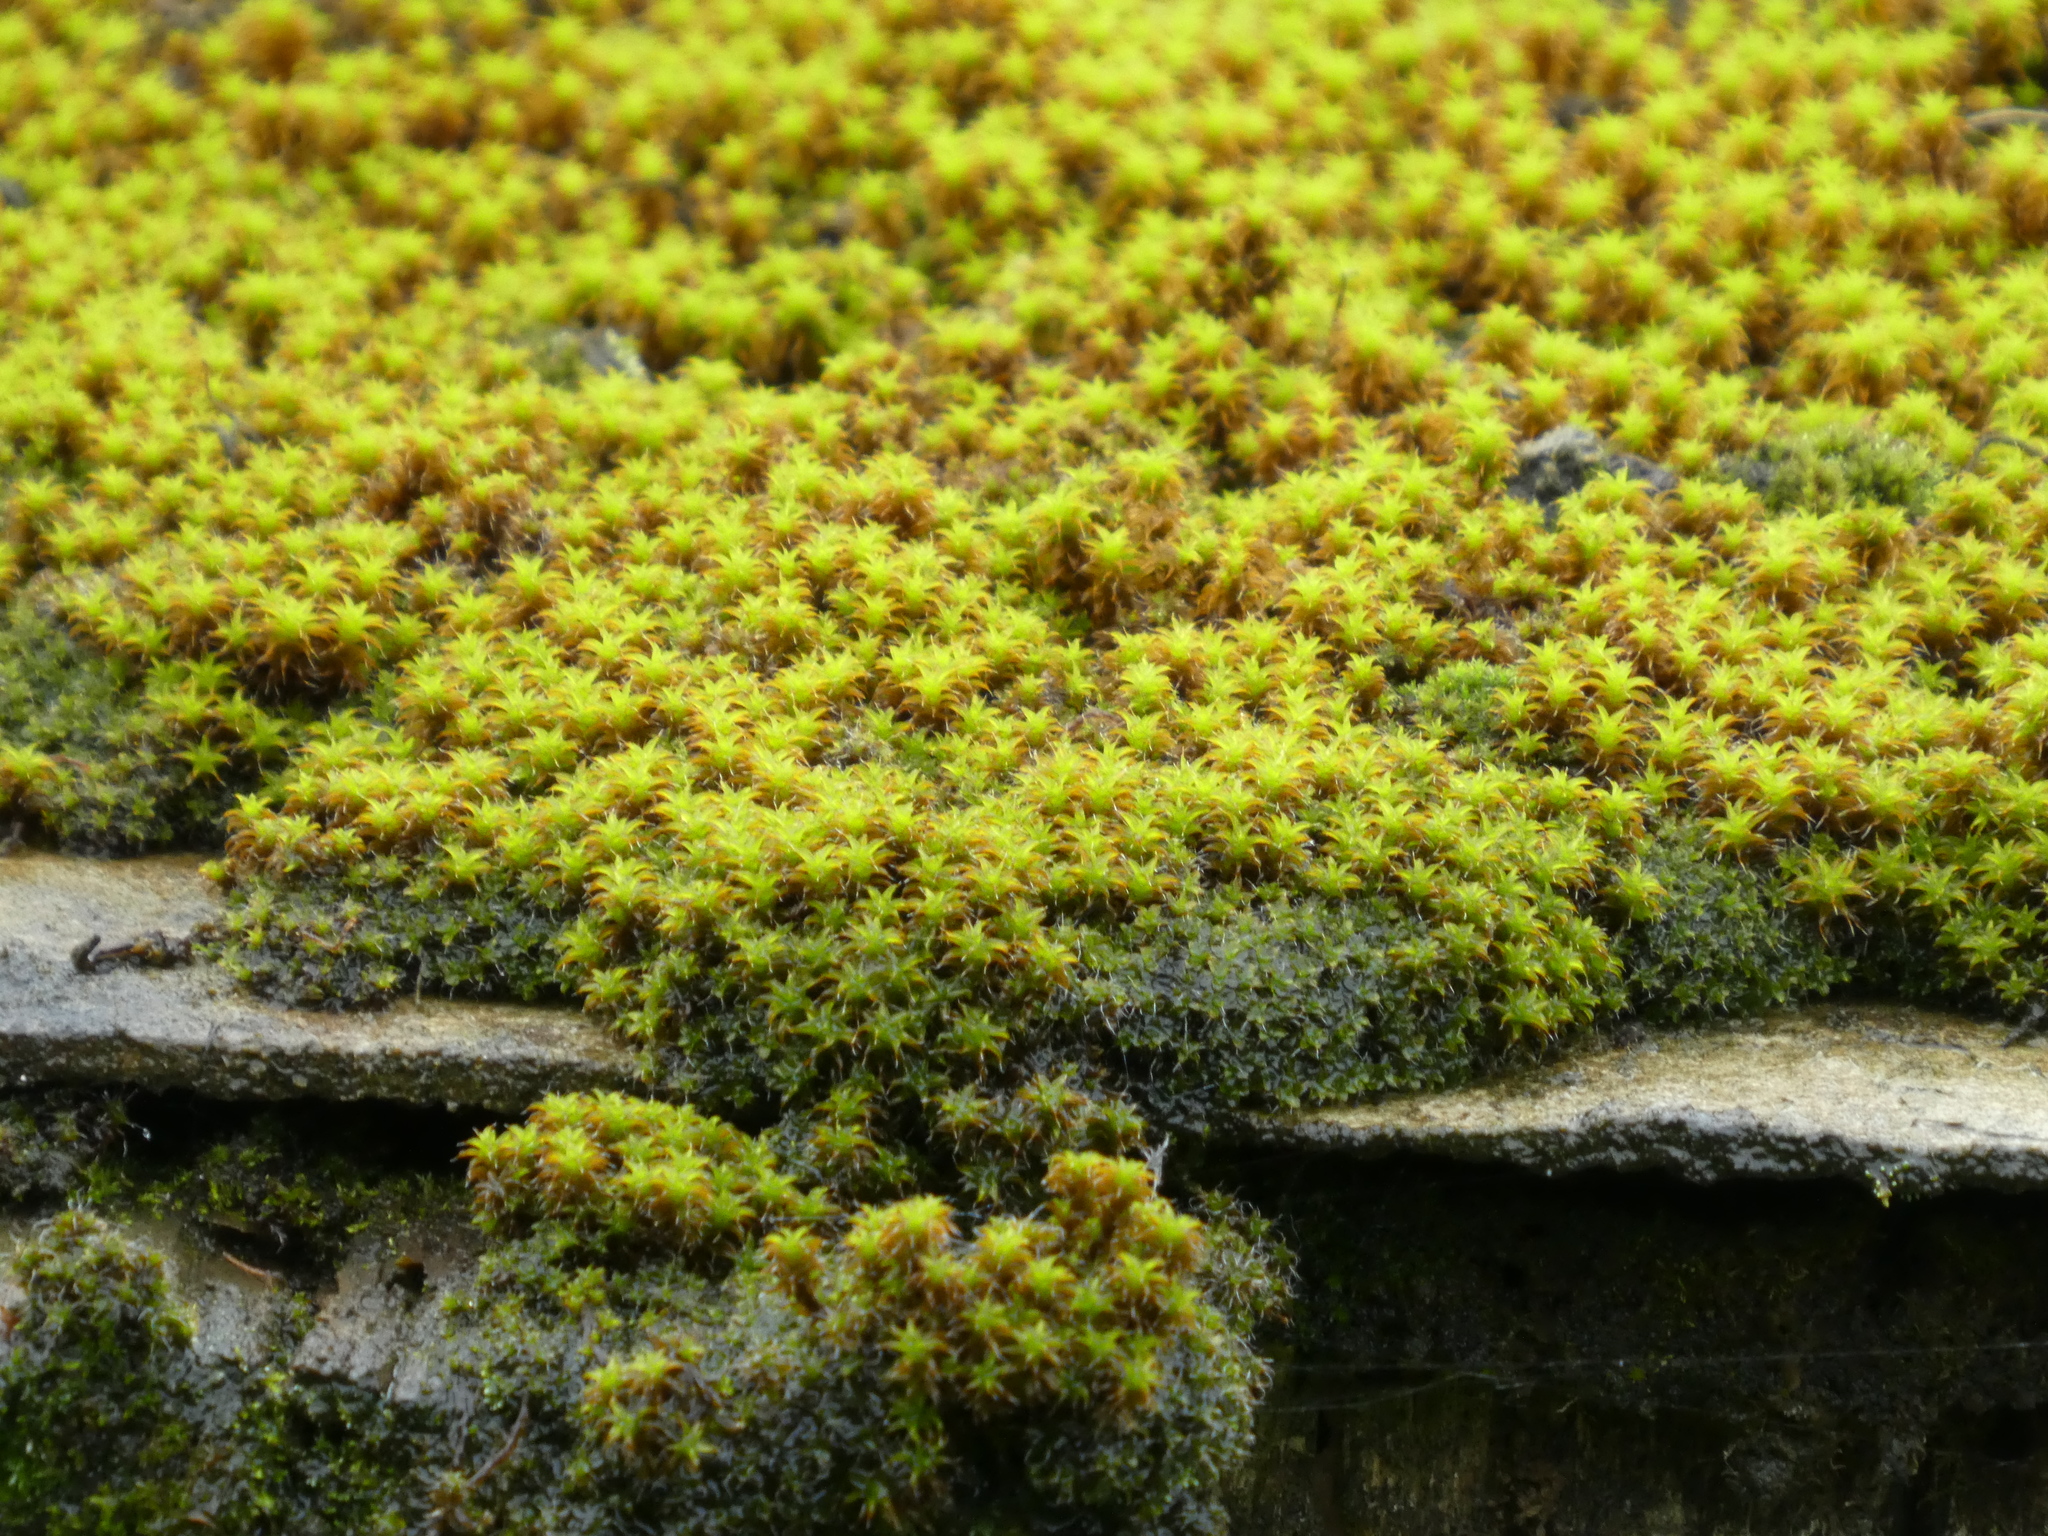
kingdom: Plantae
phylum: Bryophyta
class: Bryopsida
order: Pottiales
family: Pottiaceae
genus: Syntrichia
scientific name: Syntrichia ruralis
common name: Sidewalk screw moss
